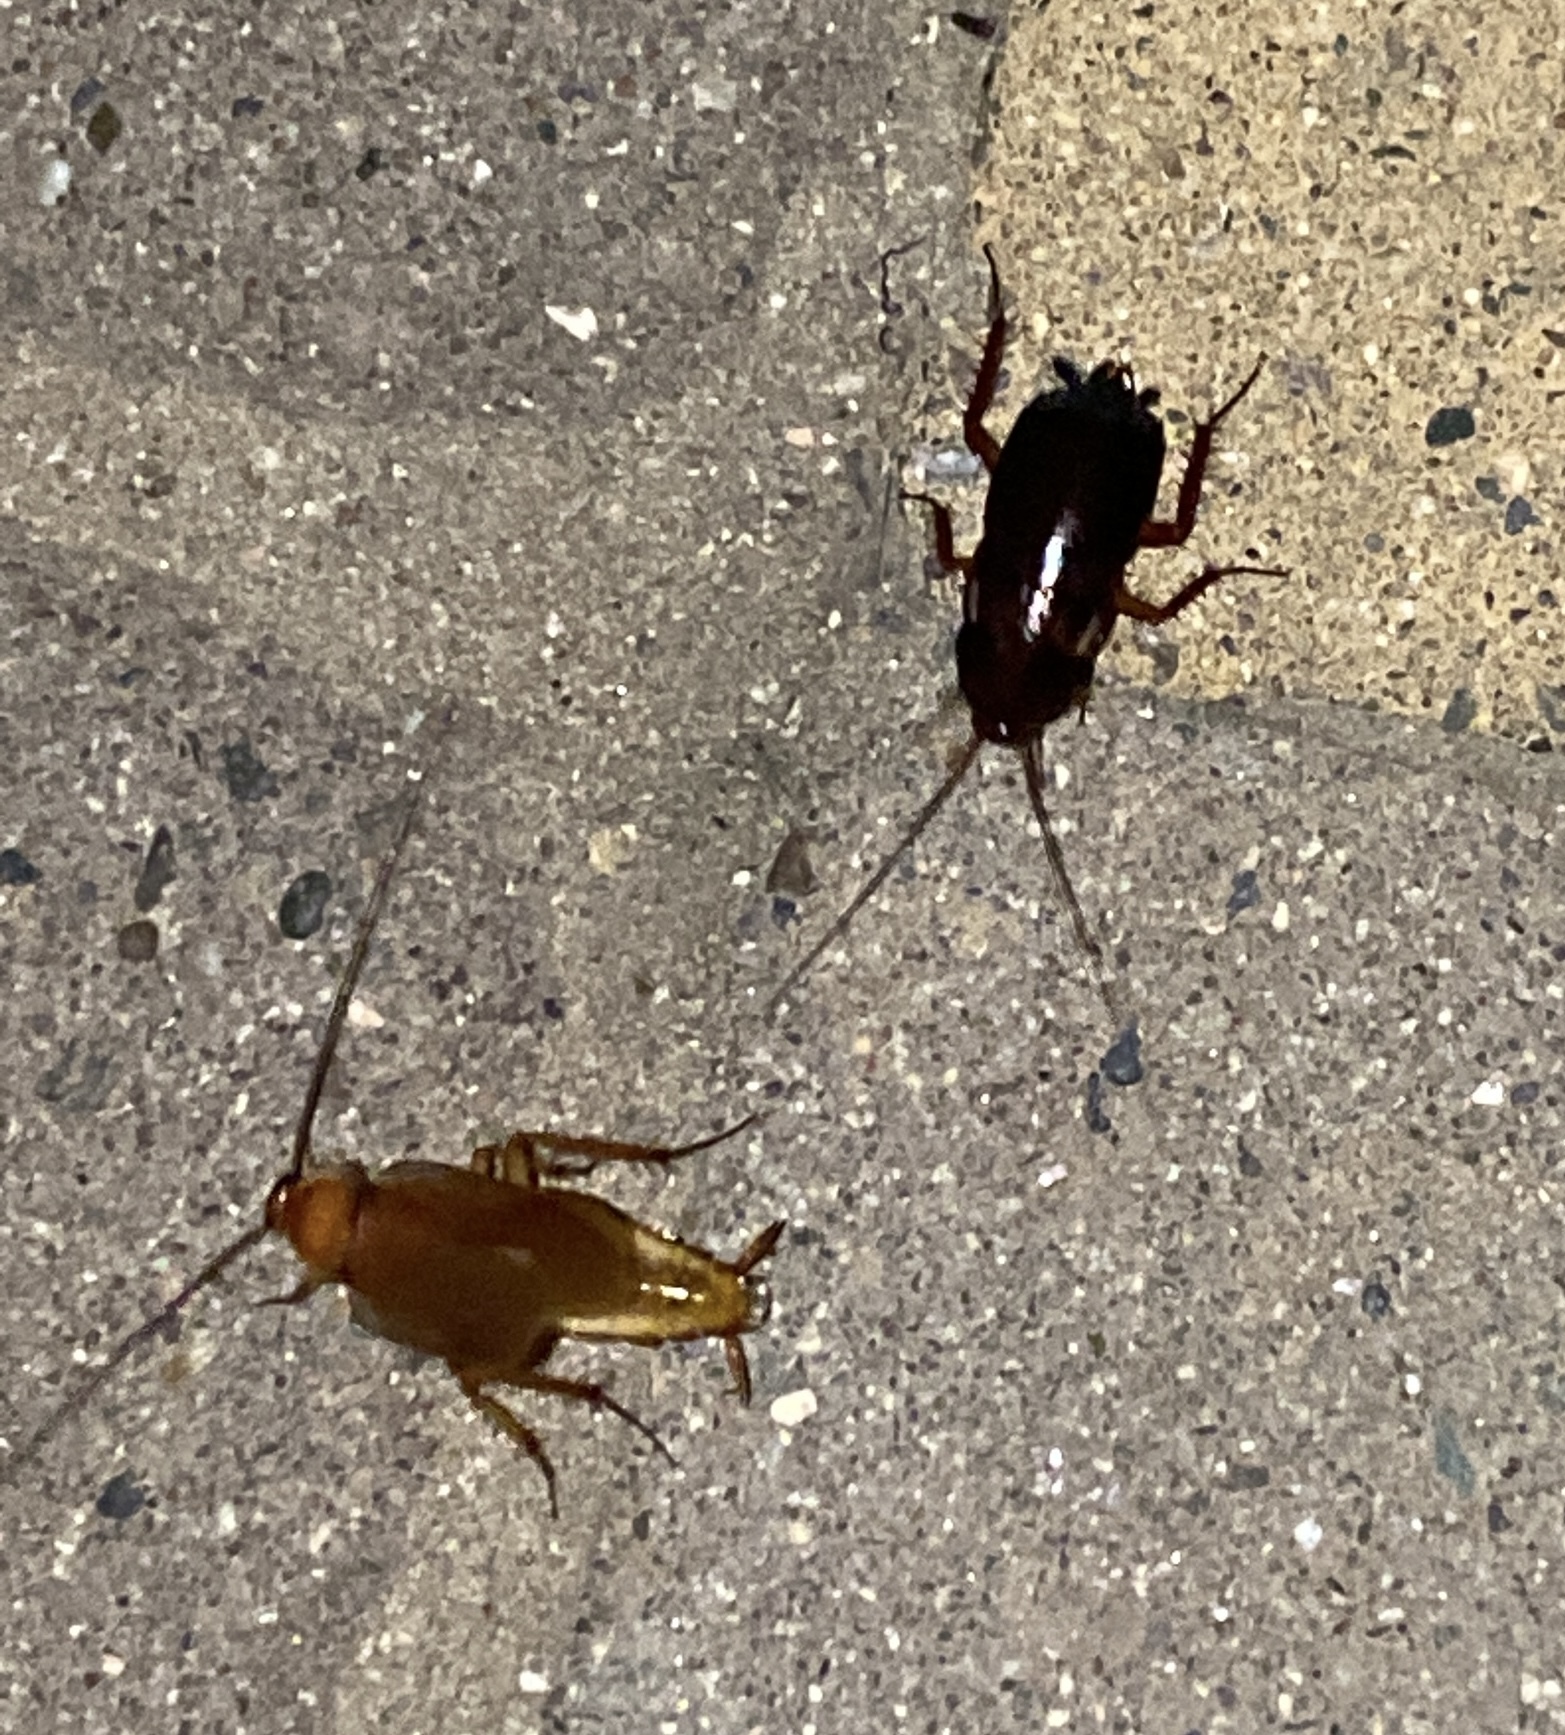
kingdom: Animalia
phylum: Arthropoda
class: Insecta
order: Blattodea
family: Blattidae
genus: Periplaneta
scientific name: Periplaneta lateralis
